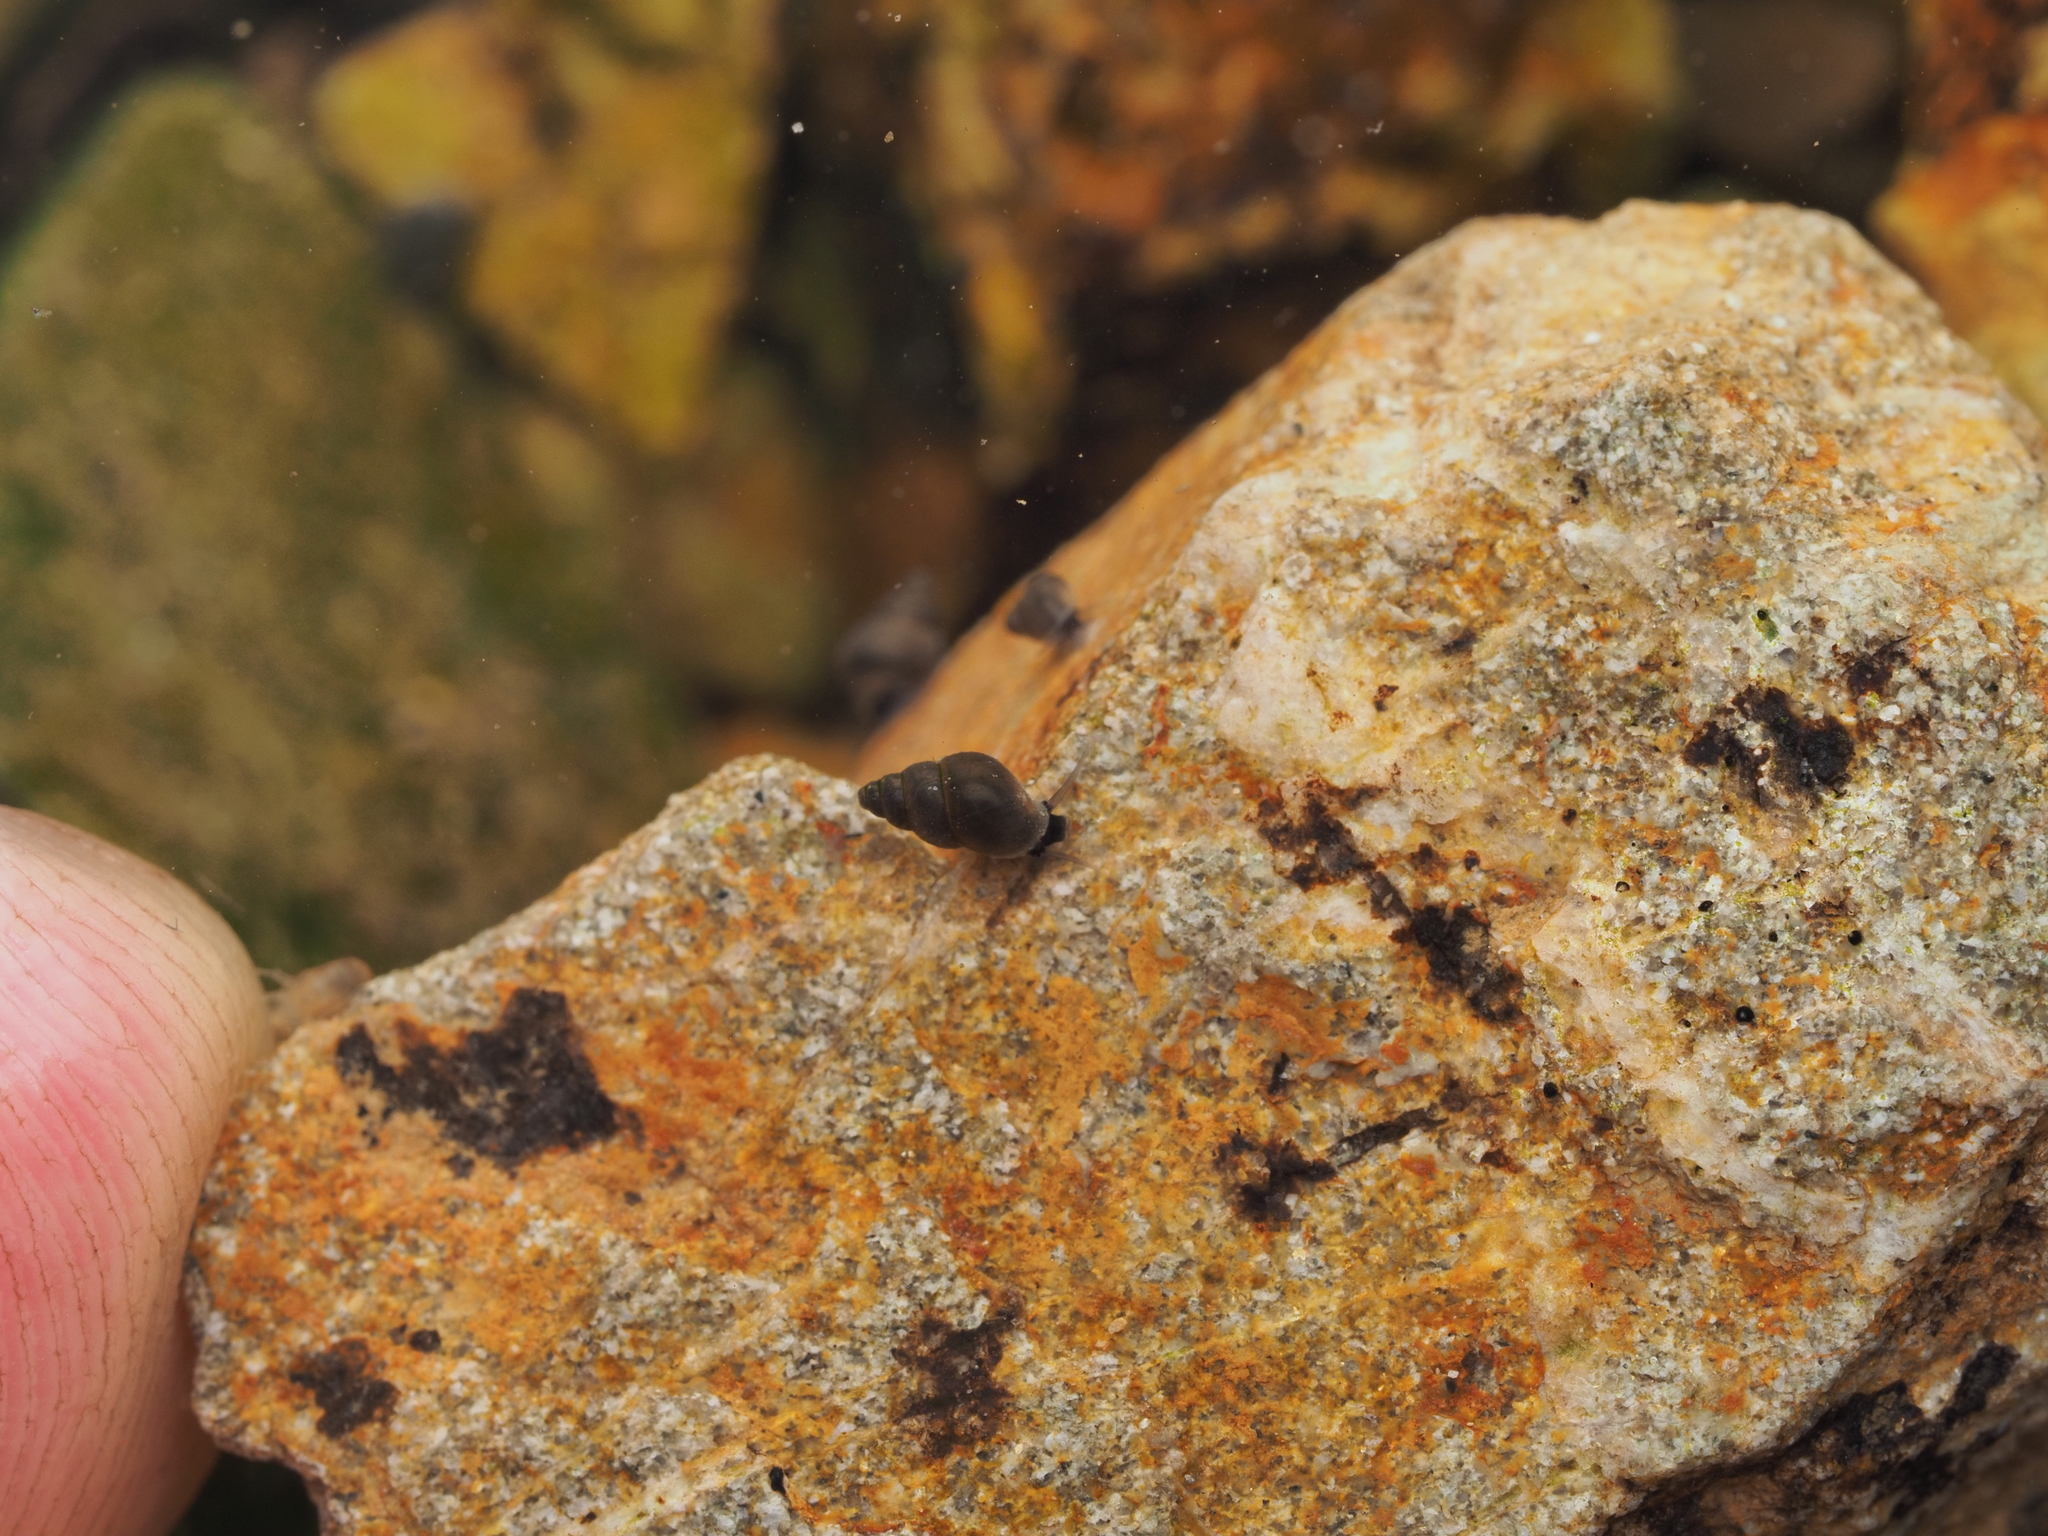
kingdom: Animalia
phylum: Mollusca
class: Gastropoda
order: Littorinimorpha
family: Tateidae
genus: Potamopyrgus
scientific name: Potamopyrgus antipodarum
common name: Jenkins' spire snail
